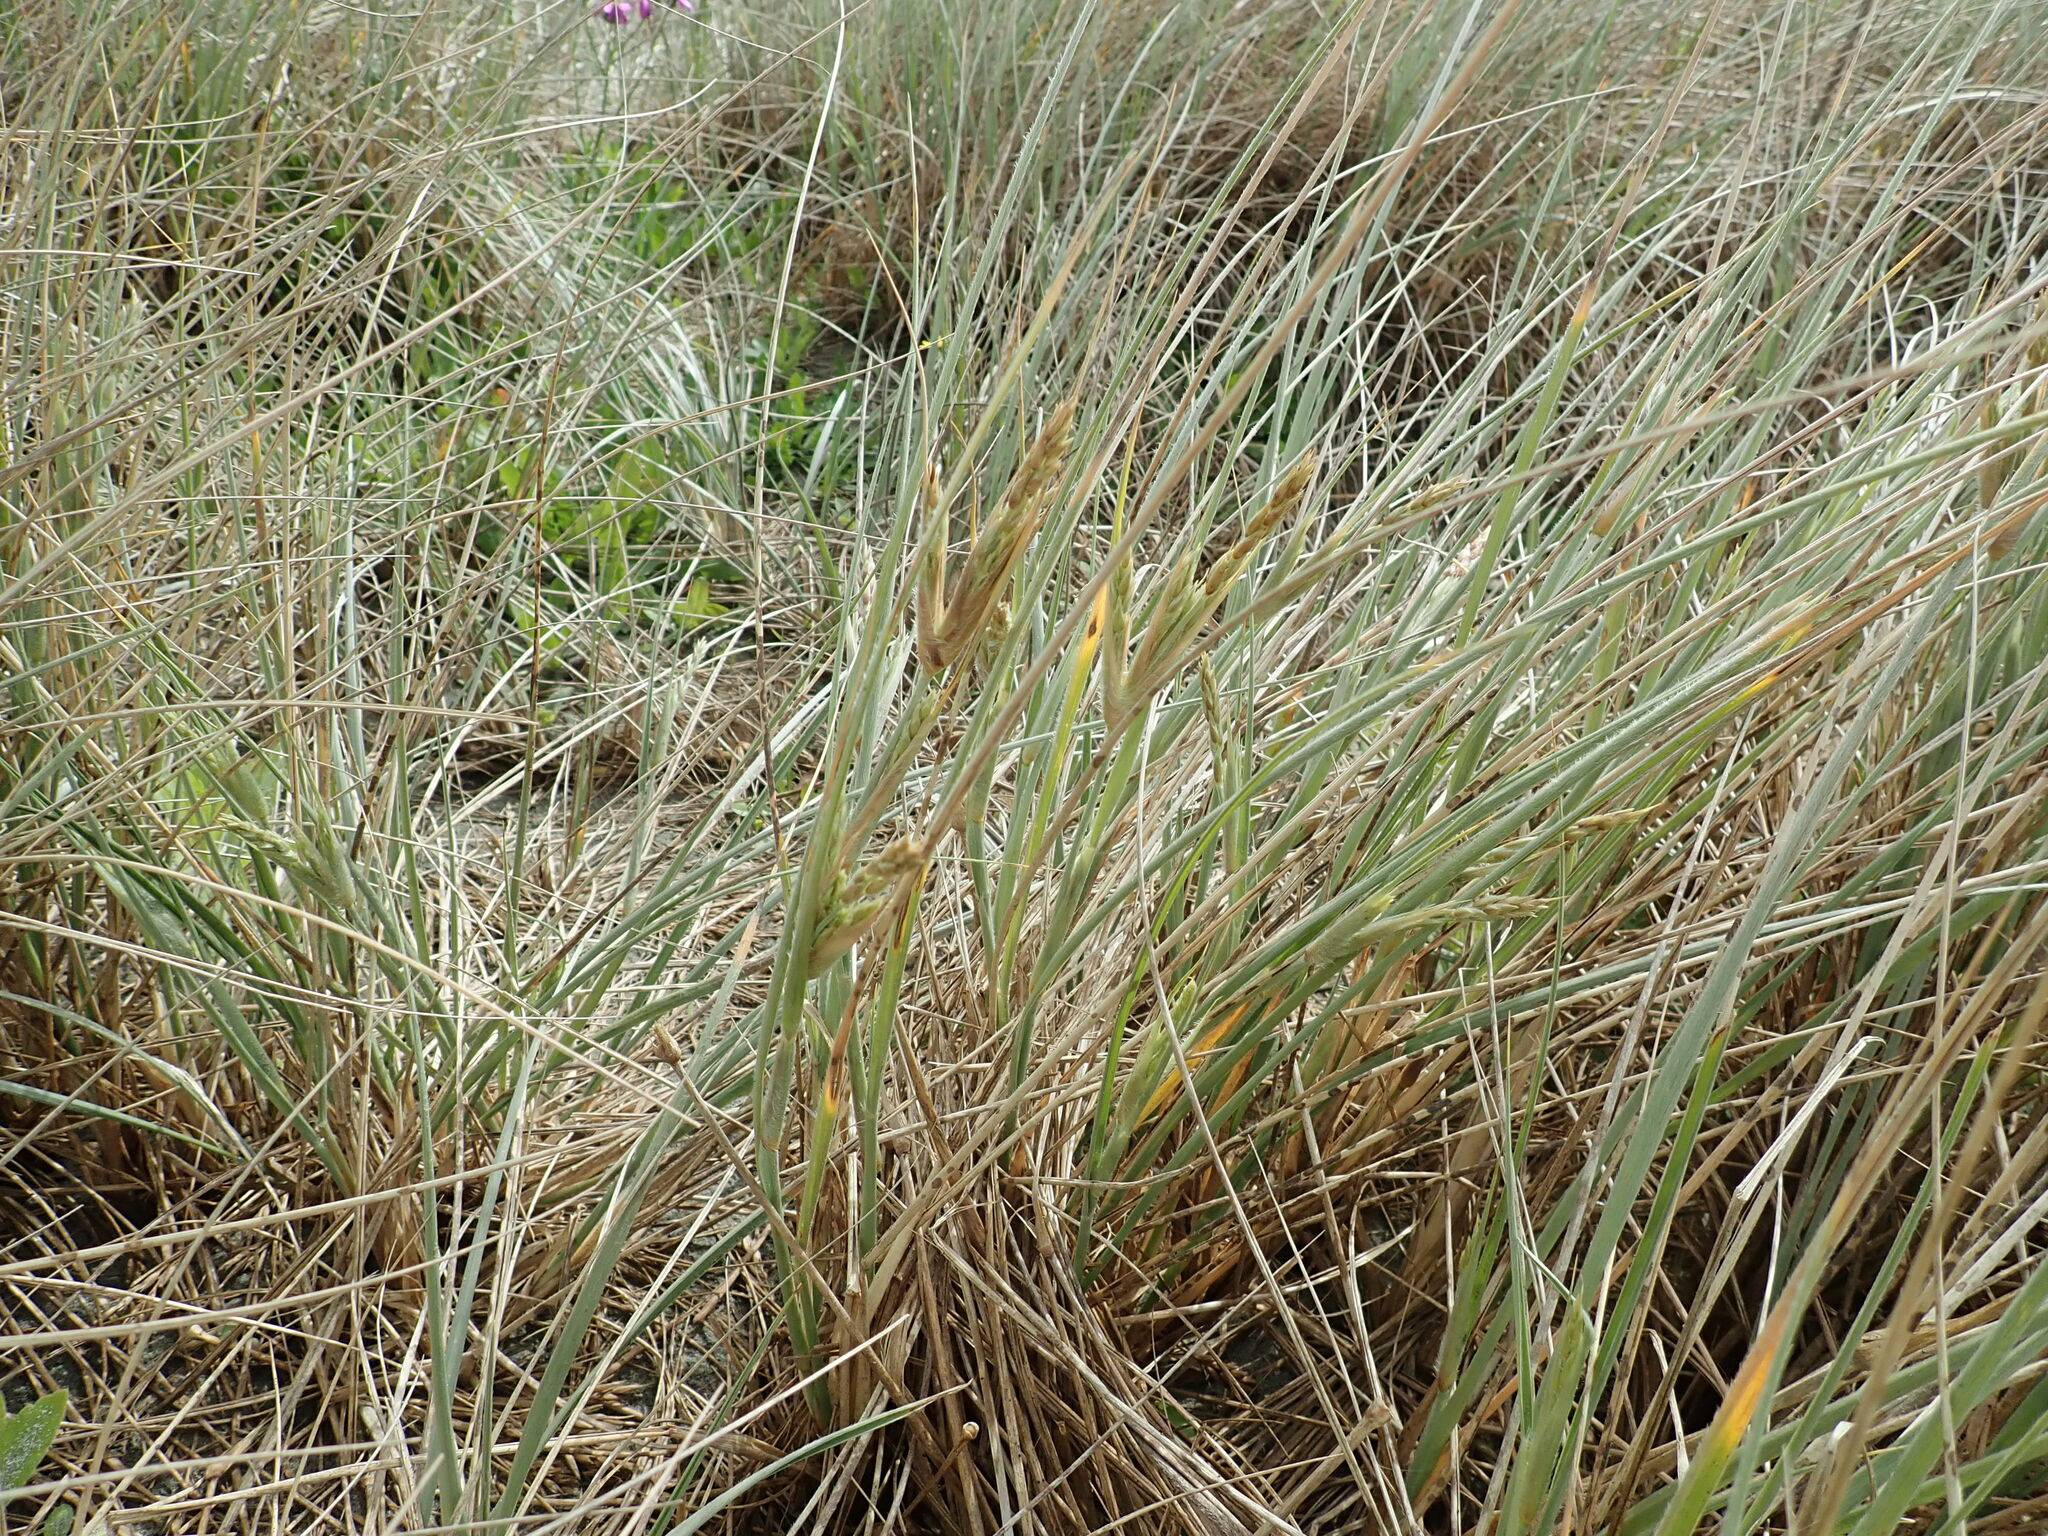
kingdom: Plantae
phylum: Tracheophyta
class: Liliopsida
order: Poales
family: Poaceae
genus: Spinifex
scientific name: Spinifex sericeus
